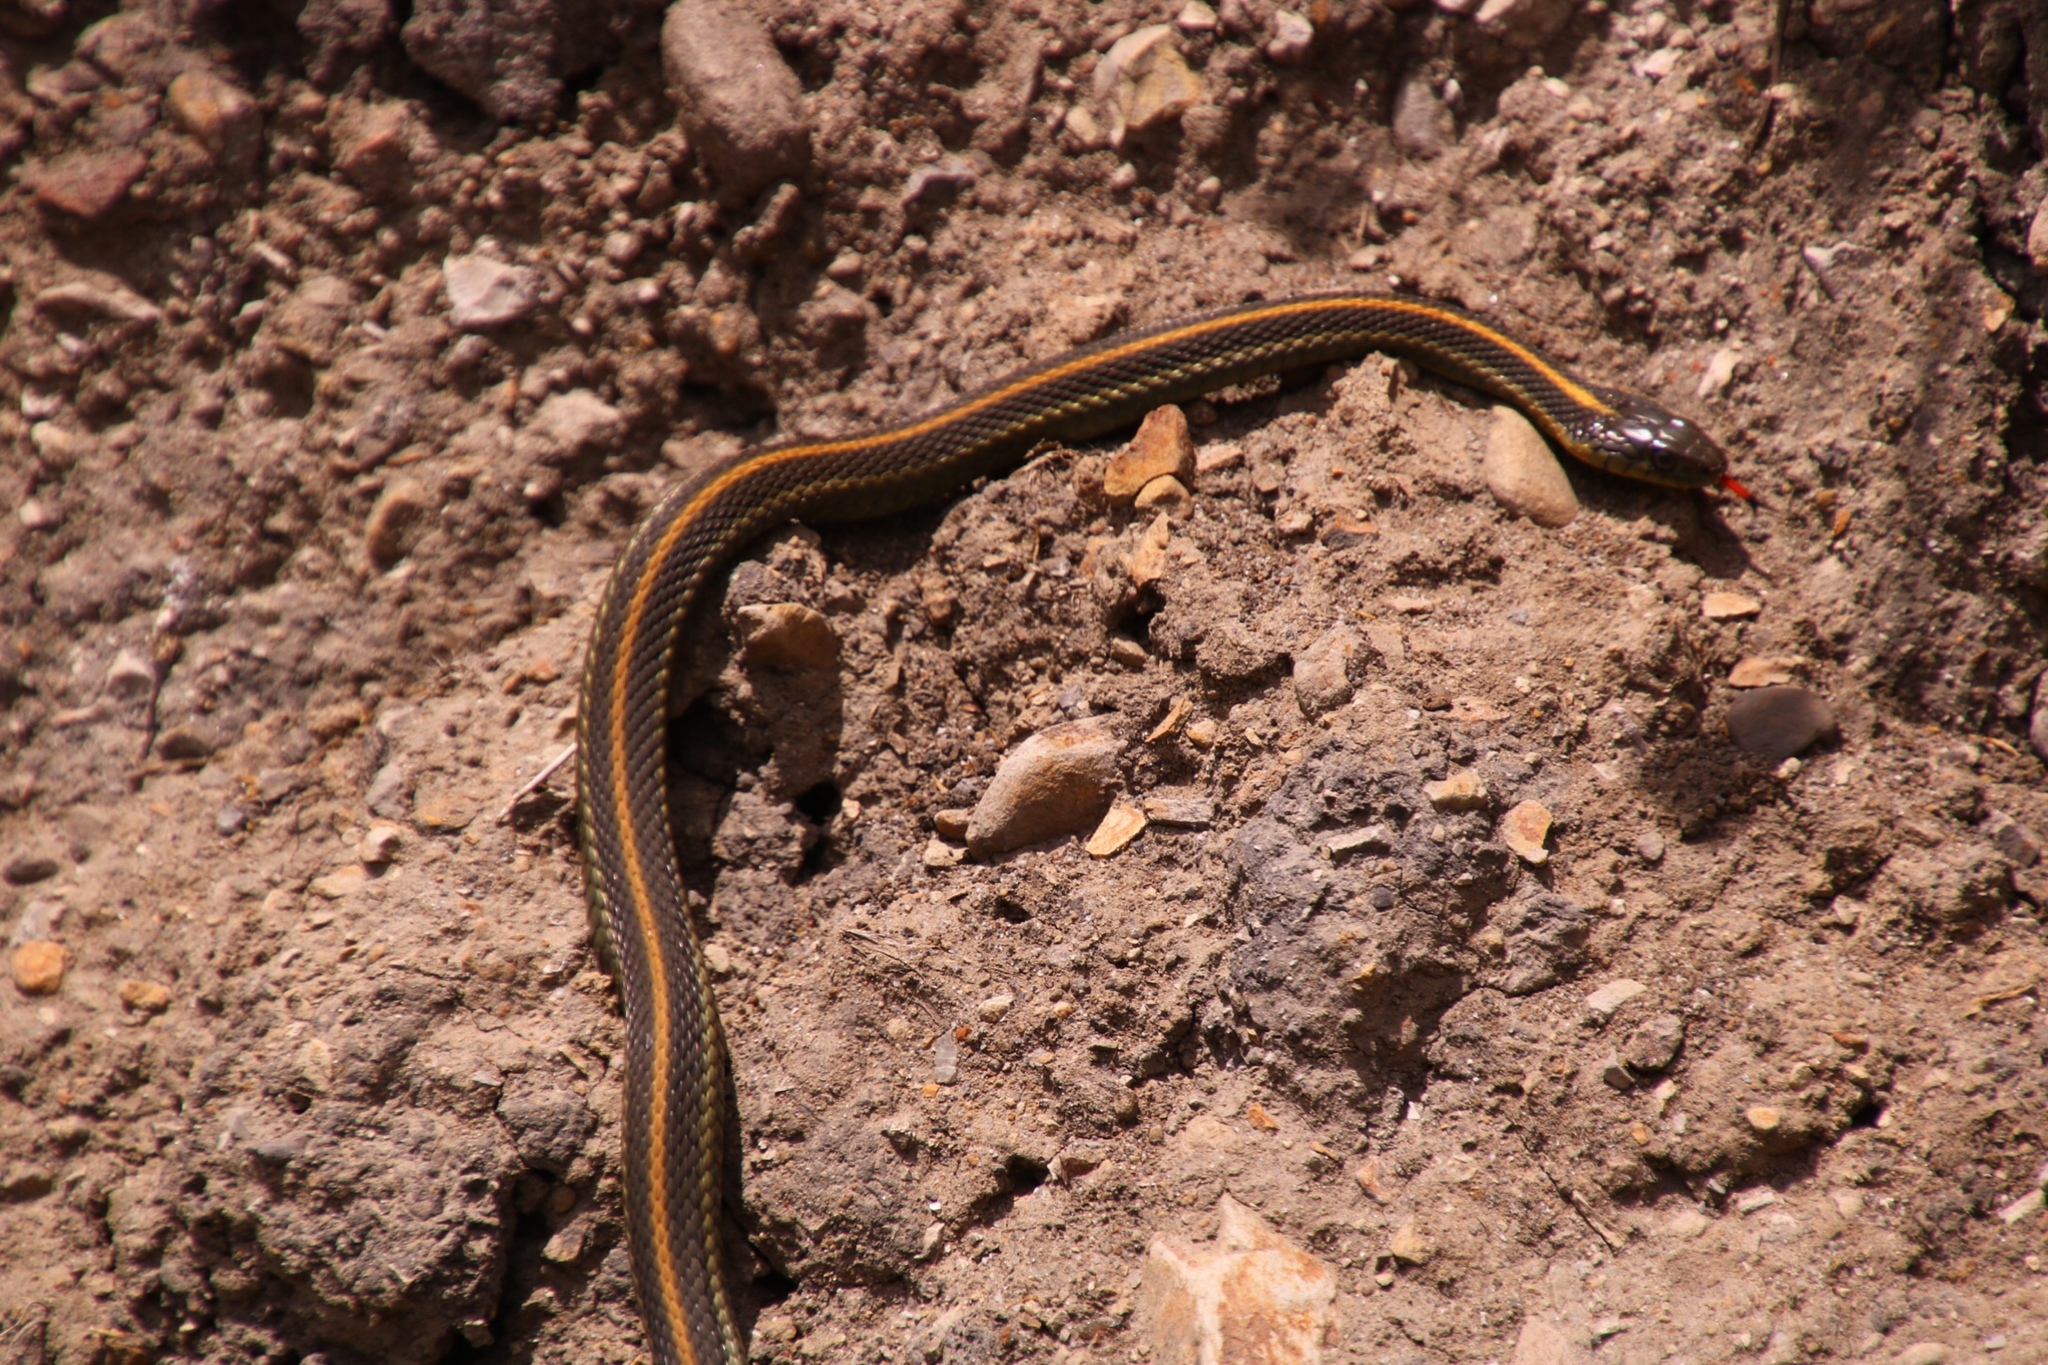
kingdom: Animalia
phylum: Chordata
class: Squamata
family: Colubridae
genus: Thamnophis
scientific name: Thamnophis atratus
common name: Pacific coast aquatic garter snake
